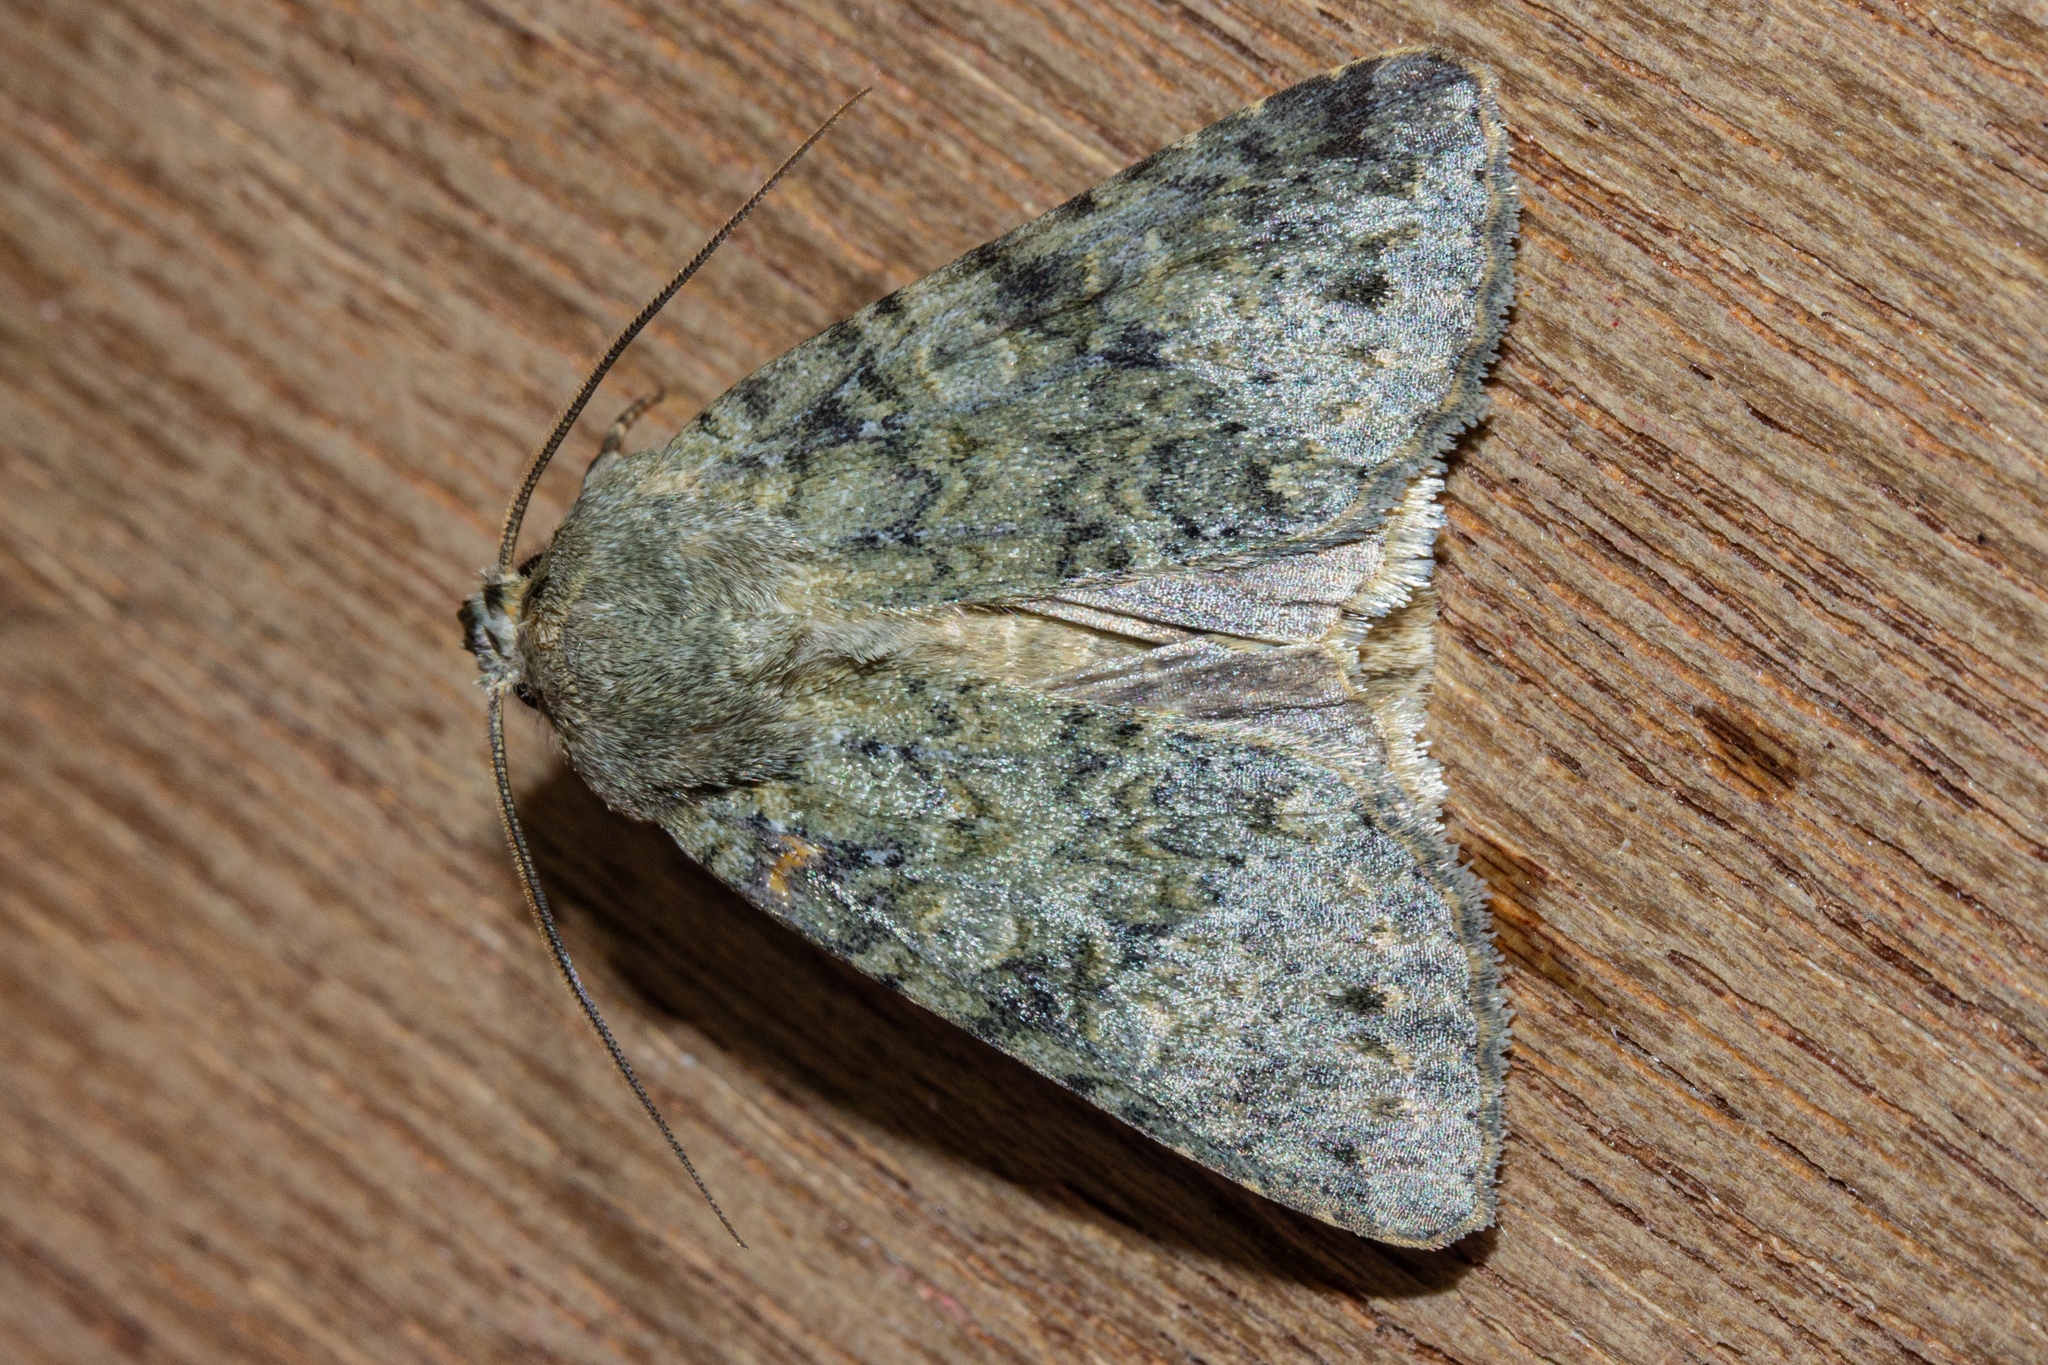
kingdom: Animalia
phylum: Arthropoda
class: Insecta
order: Lepidoptera
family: Noctuidae
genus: Ichneutica
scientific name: Ichneutica
